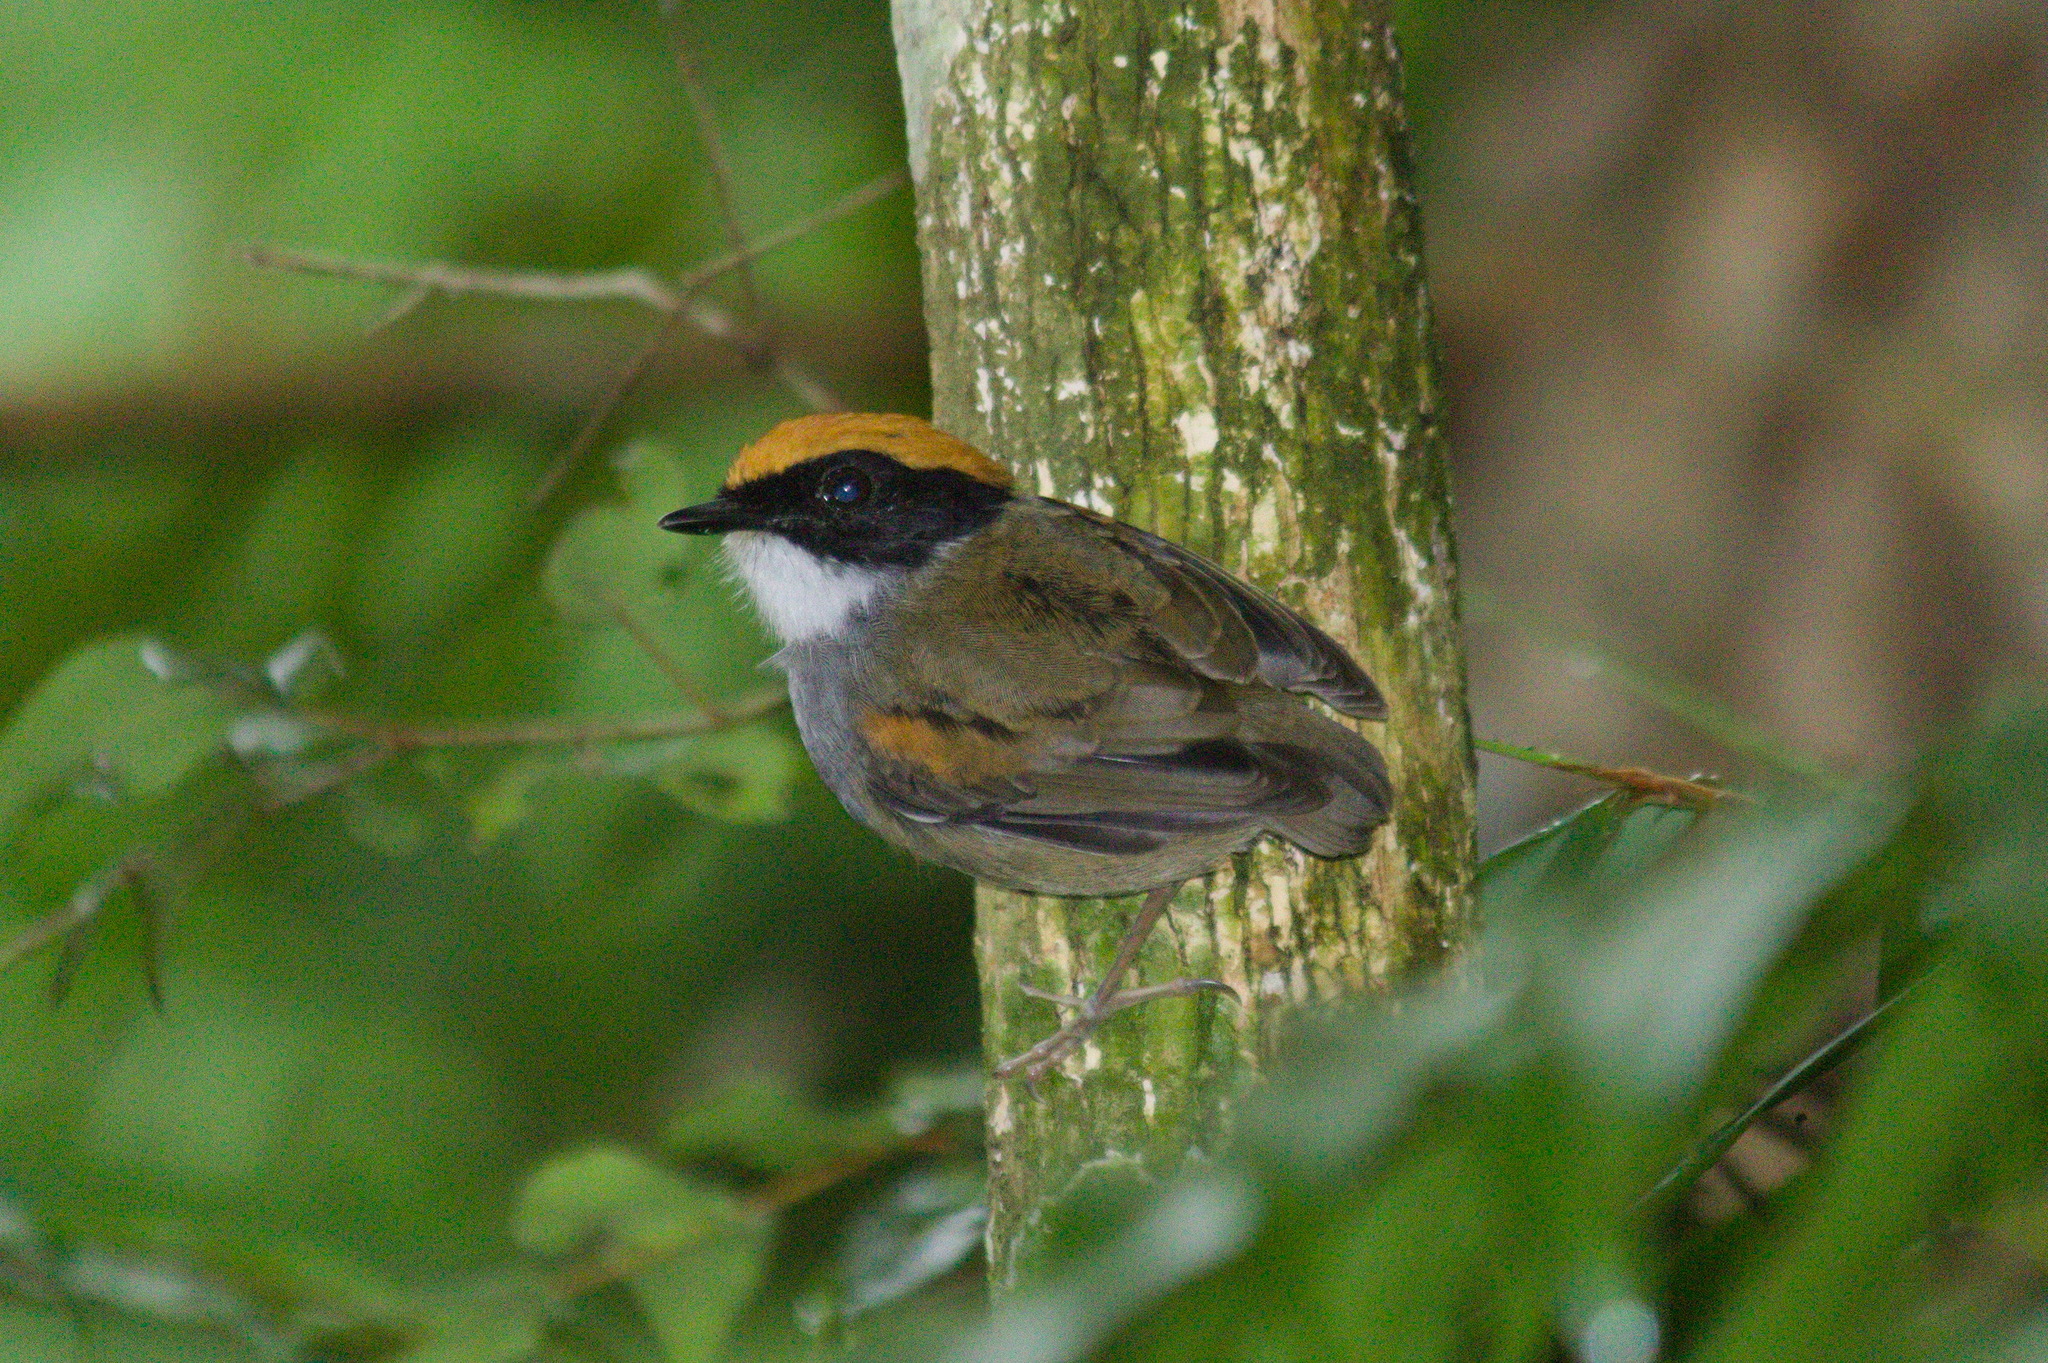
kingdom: Animalia
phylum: Chordata
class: Aves
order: Passeriformes
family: Conopophagidae
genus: Conopophaga
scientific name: Conopophaga melanops
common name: Black-cheeked gnateater
